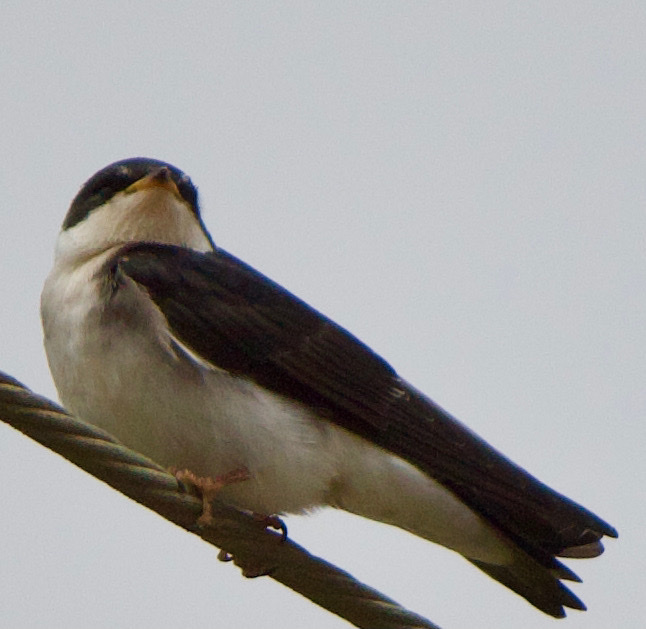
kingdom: Animalia
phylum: Chordata
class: Aves
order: Passeriformes
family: Hirundinidae
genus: Tachycineta
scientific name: Tachycineta leucopyga
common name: Chilean swallow
